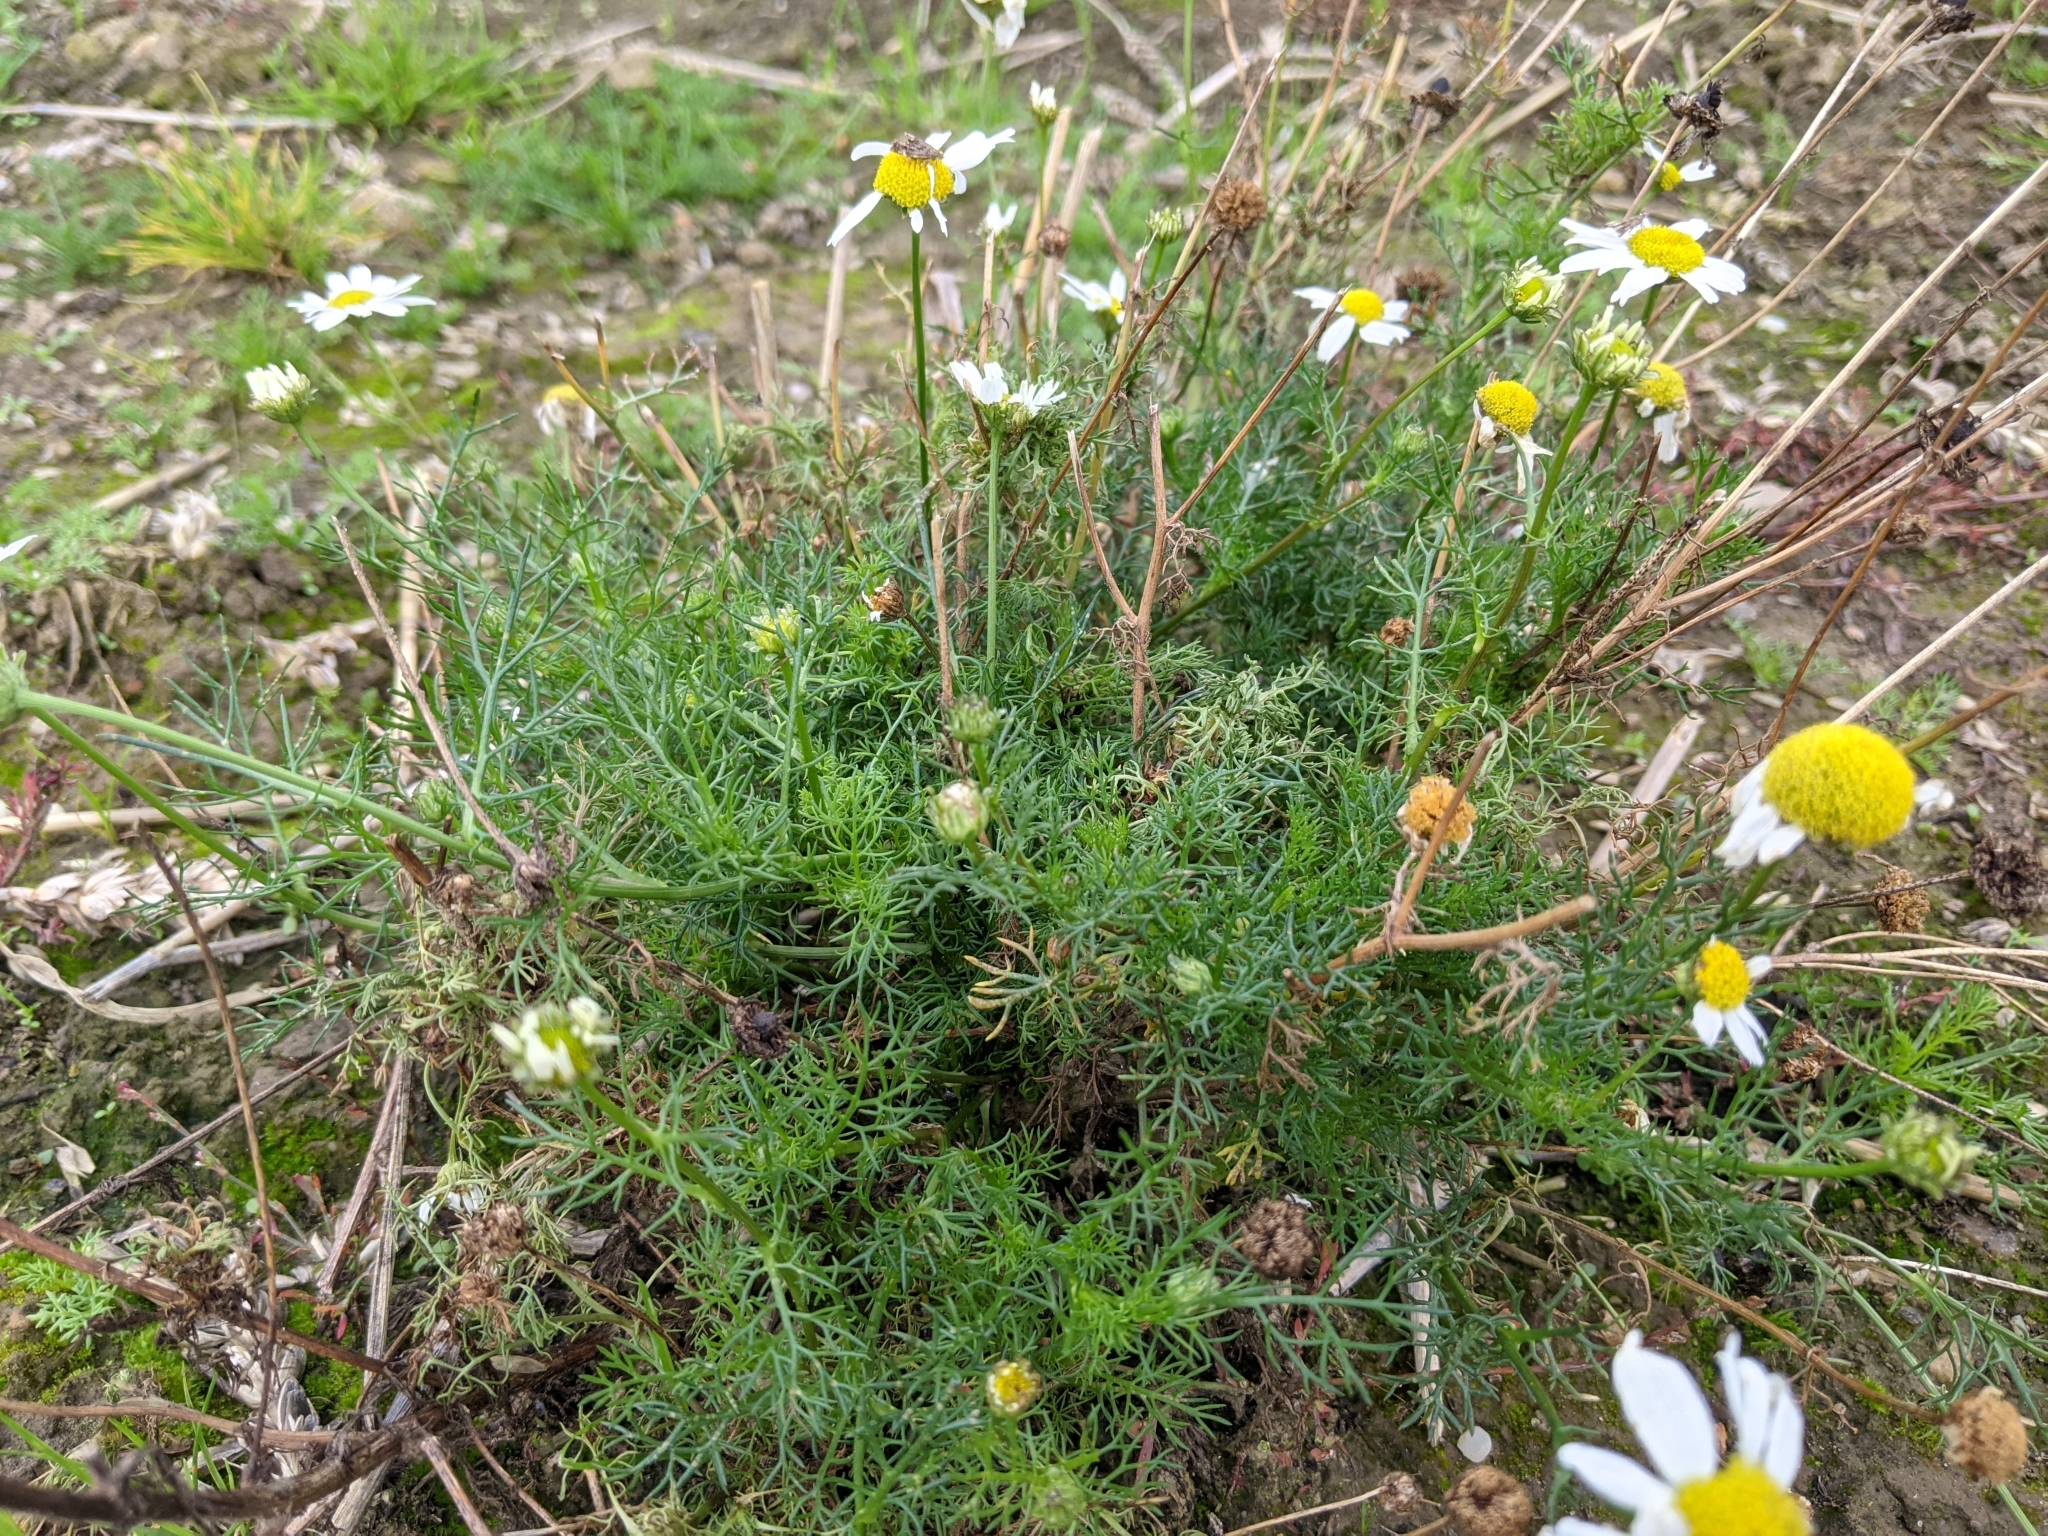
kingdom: Plantae
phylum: Tracheophyta
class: Magnoliopsida
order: Asterales
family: Asteraceae
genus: Tripleurospermum
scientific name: Tripleurospermum inodorum
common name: Scentless mayweed
